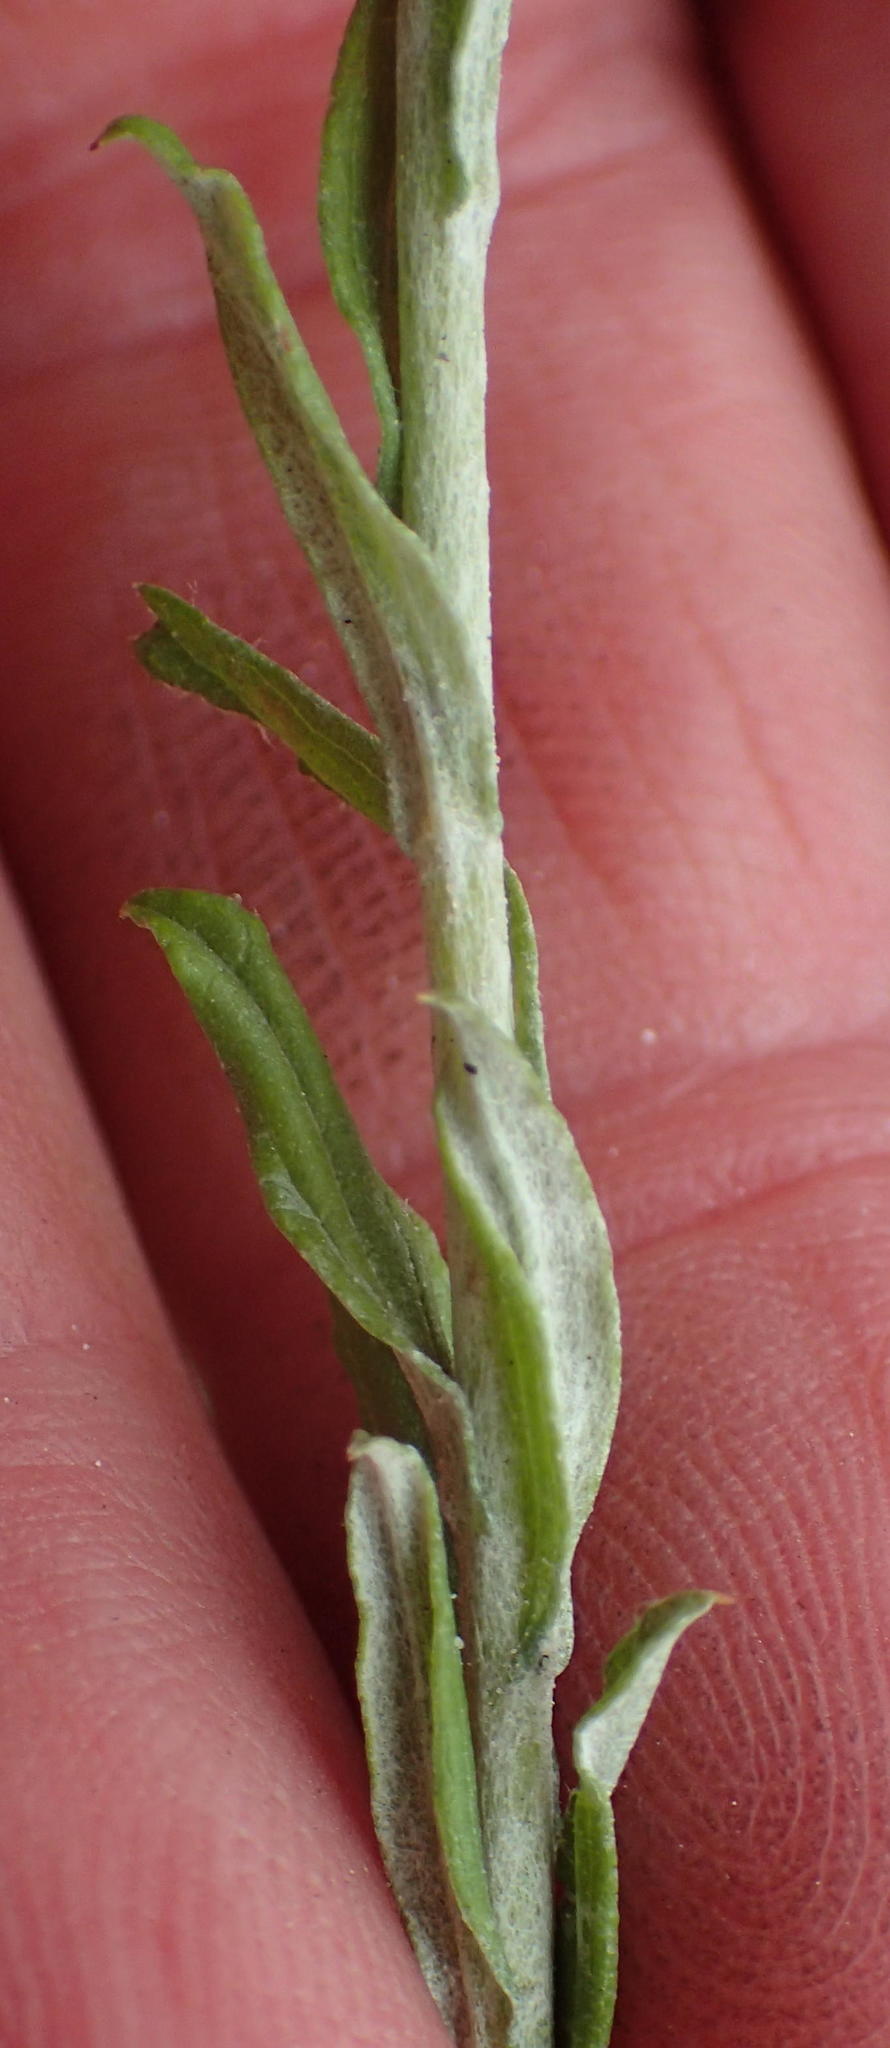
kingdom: Plantae
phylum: Tracheophyta
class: Magnoliopsida
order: Asterales
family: Asteraceae
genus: Helichrysum
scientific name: Helichrysum cymosum
